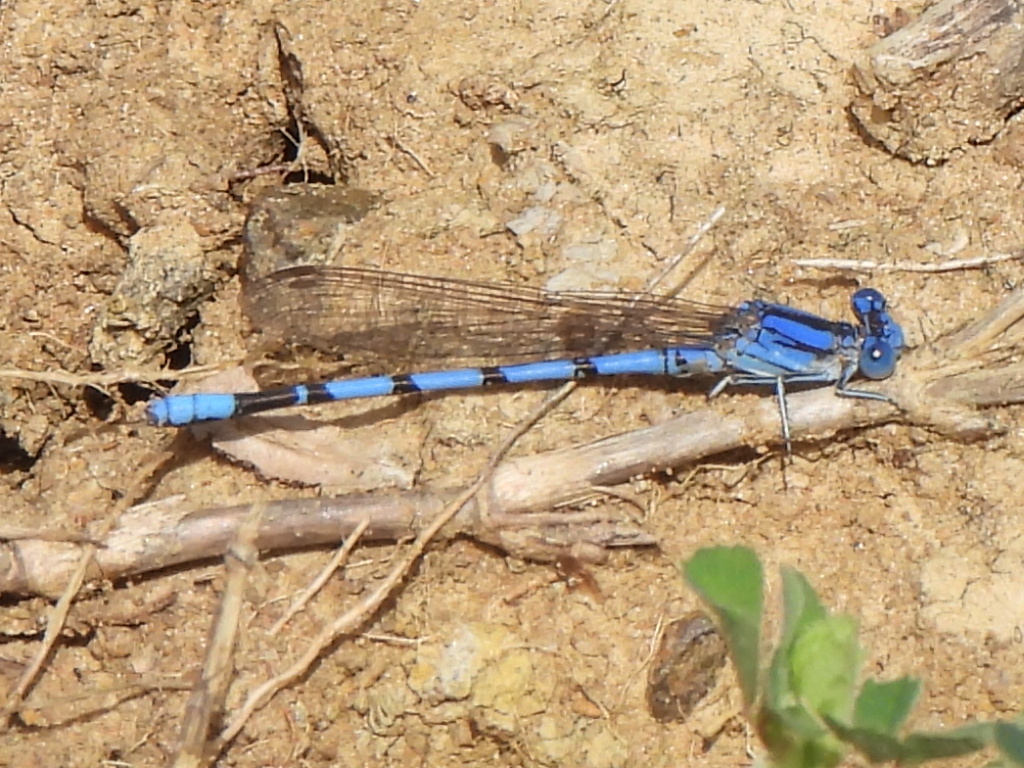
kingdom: Animalia
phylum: Arthropoda
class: Insecta
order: Odonata
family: Coenagrionidae
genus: Argia
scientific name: Argia nahuana
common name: Aztec dancer
